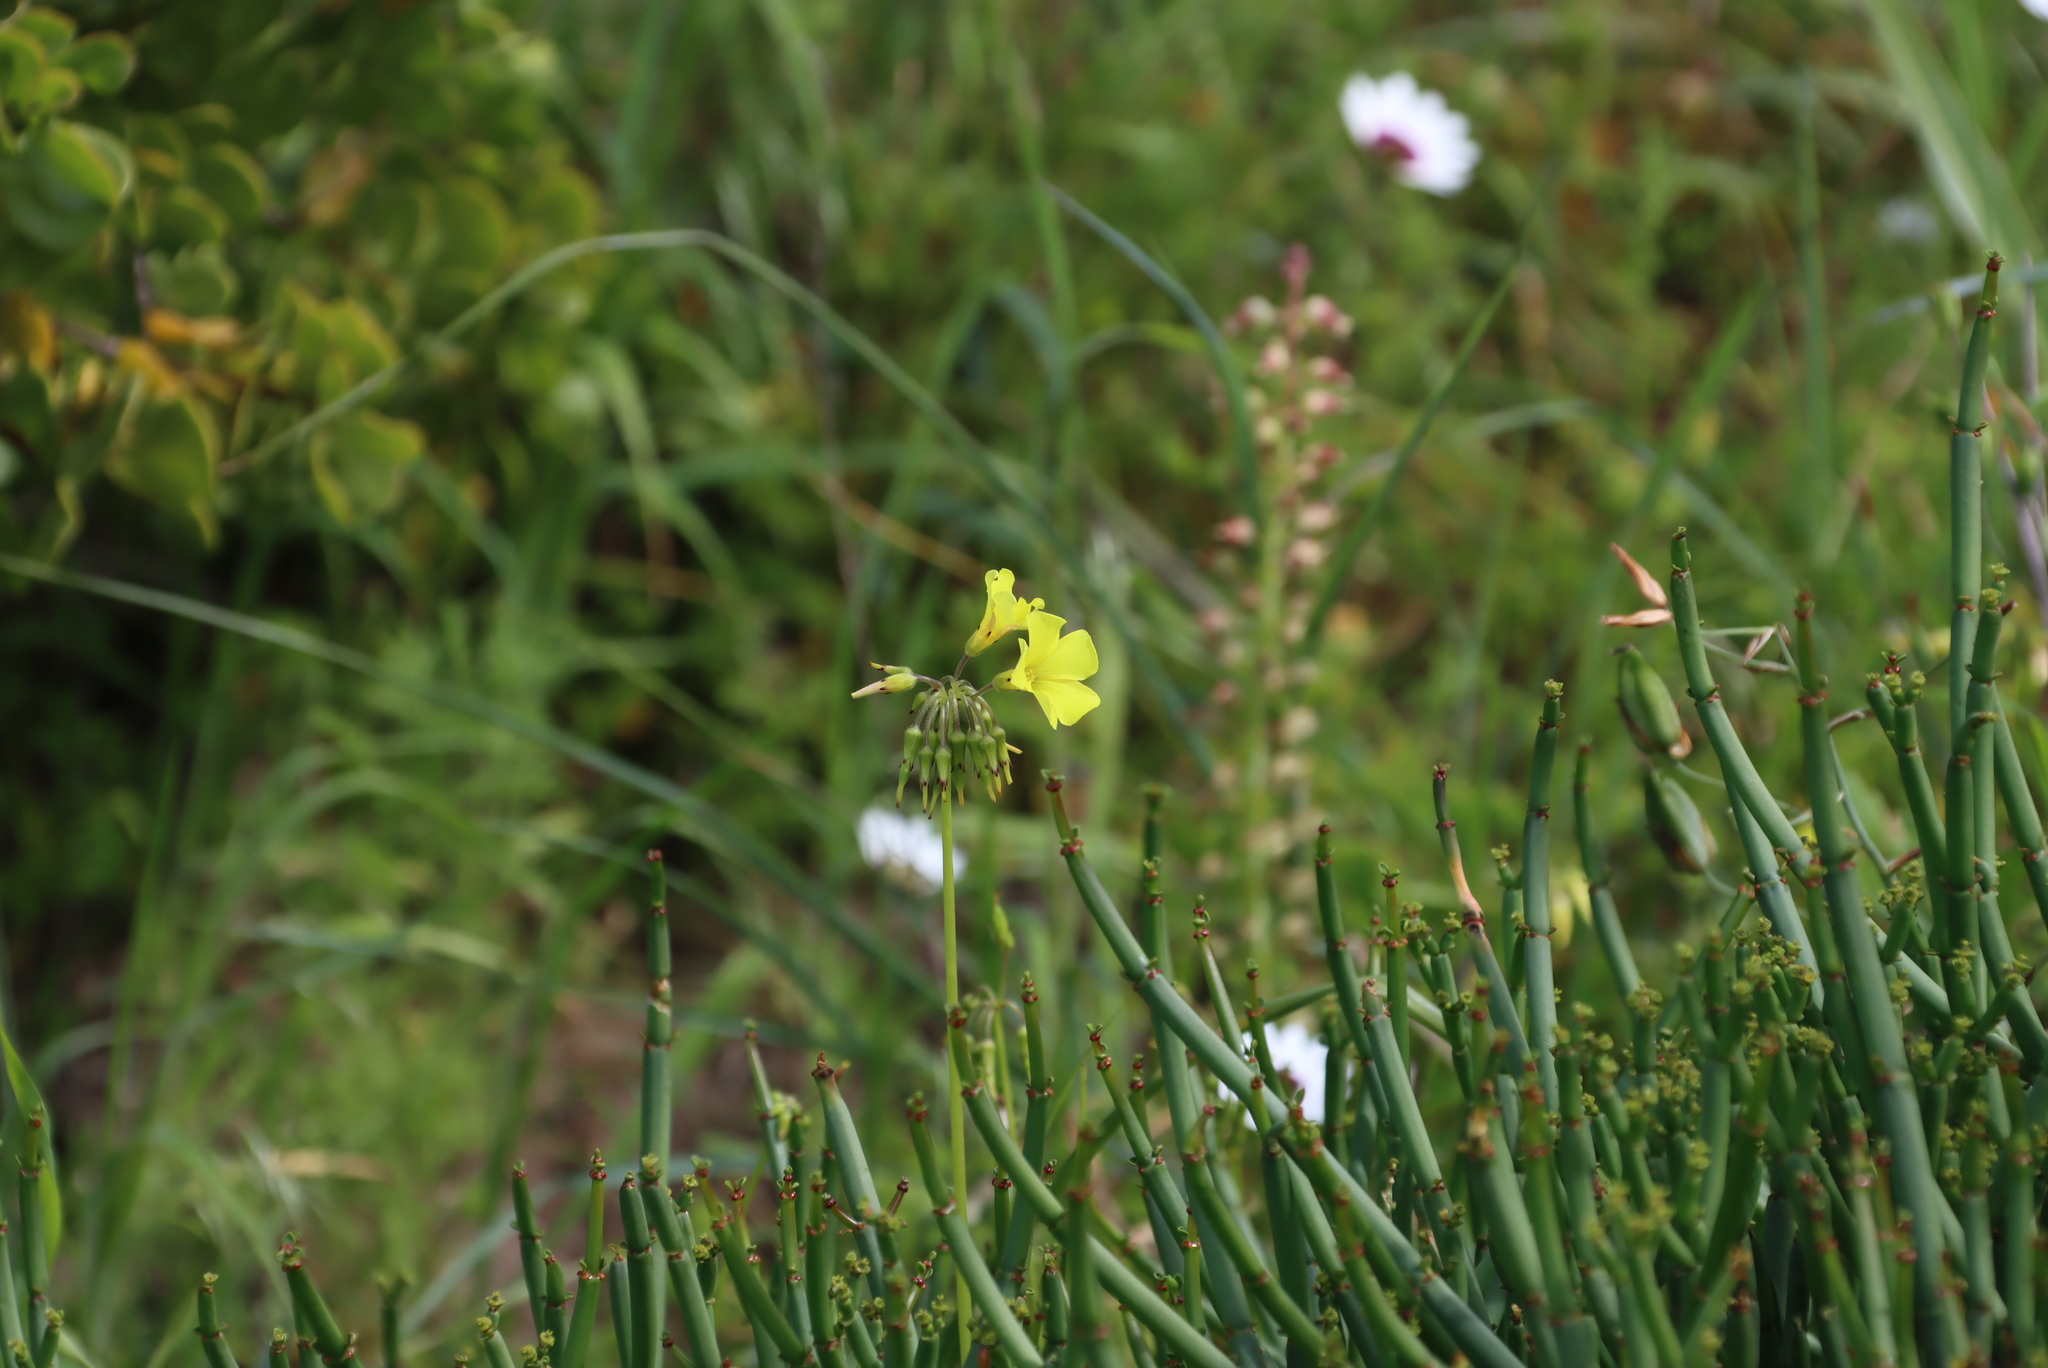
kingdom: Plantae
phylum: Tracheophyta
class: Magnoliopsida
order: Oxalidales
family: Oxalidaceae
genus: Oxalis
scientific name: Oxalis pes-caprae
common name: Bermuda-buttercup
